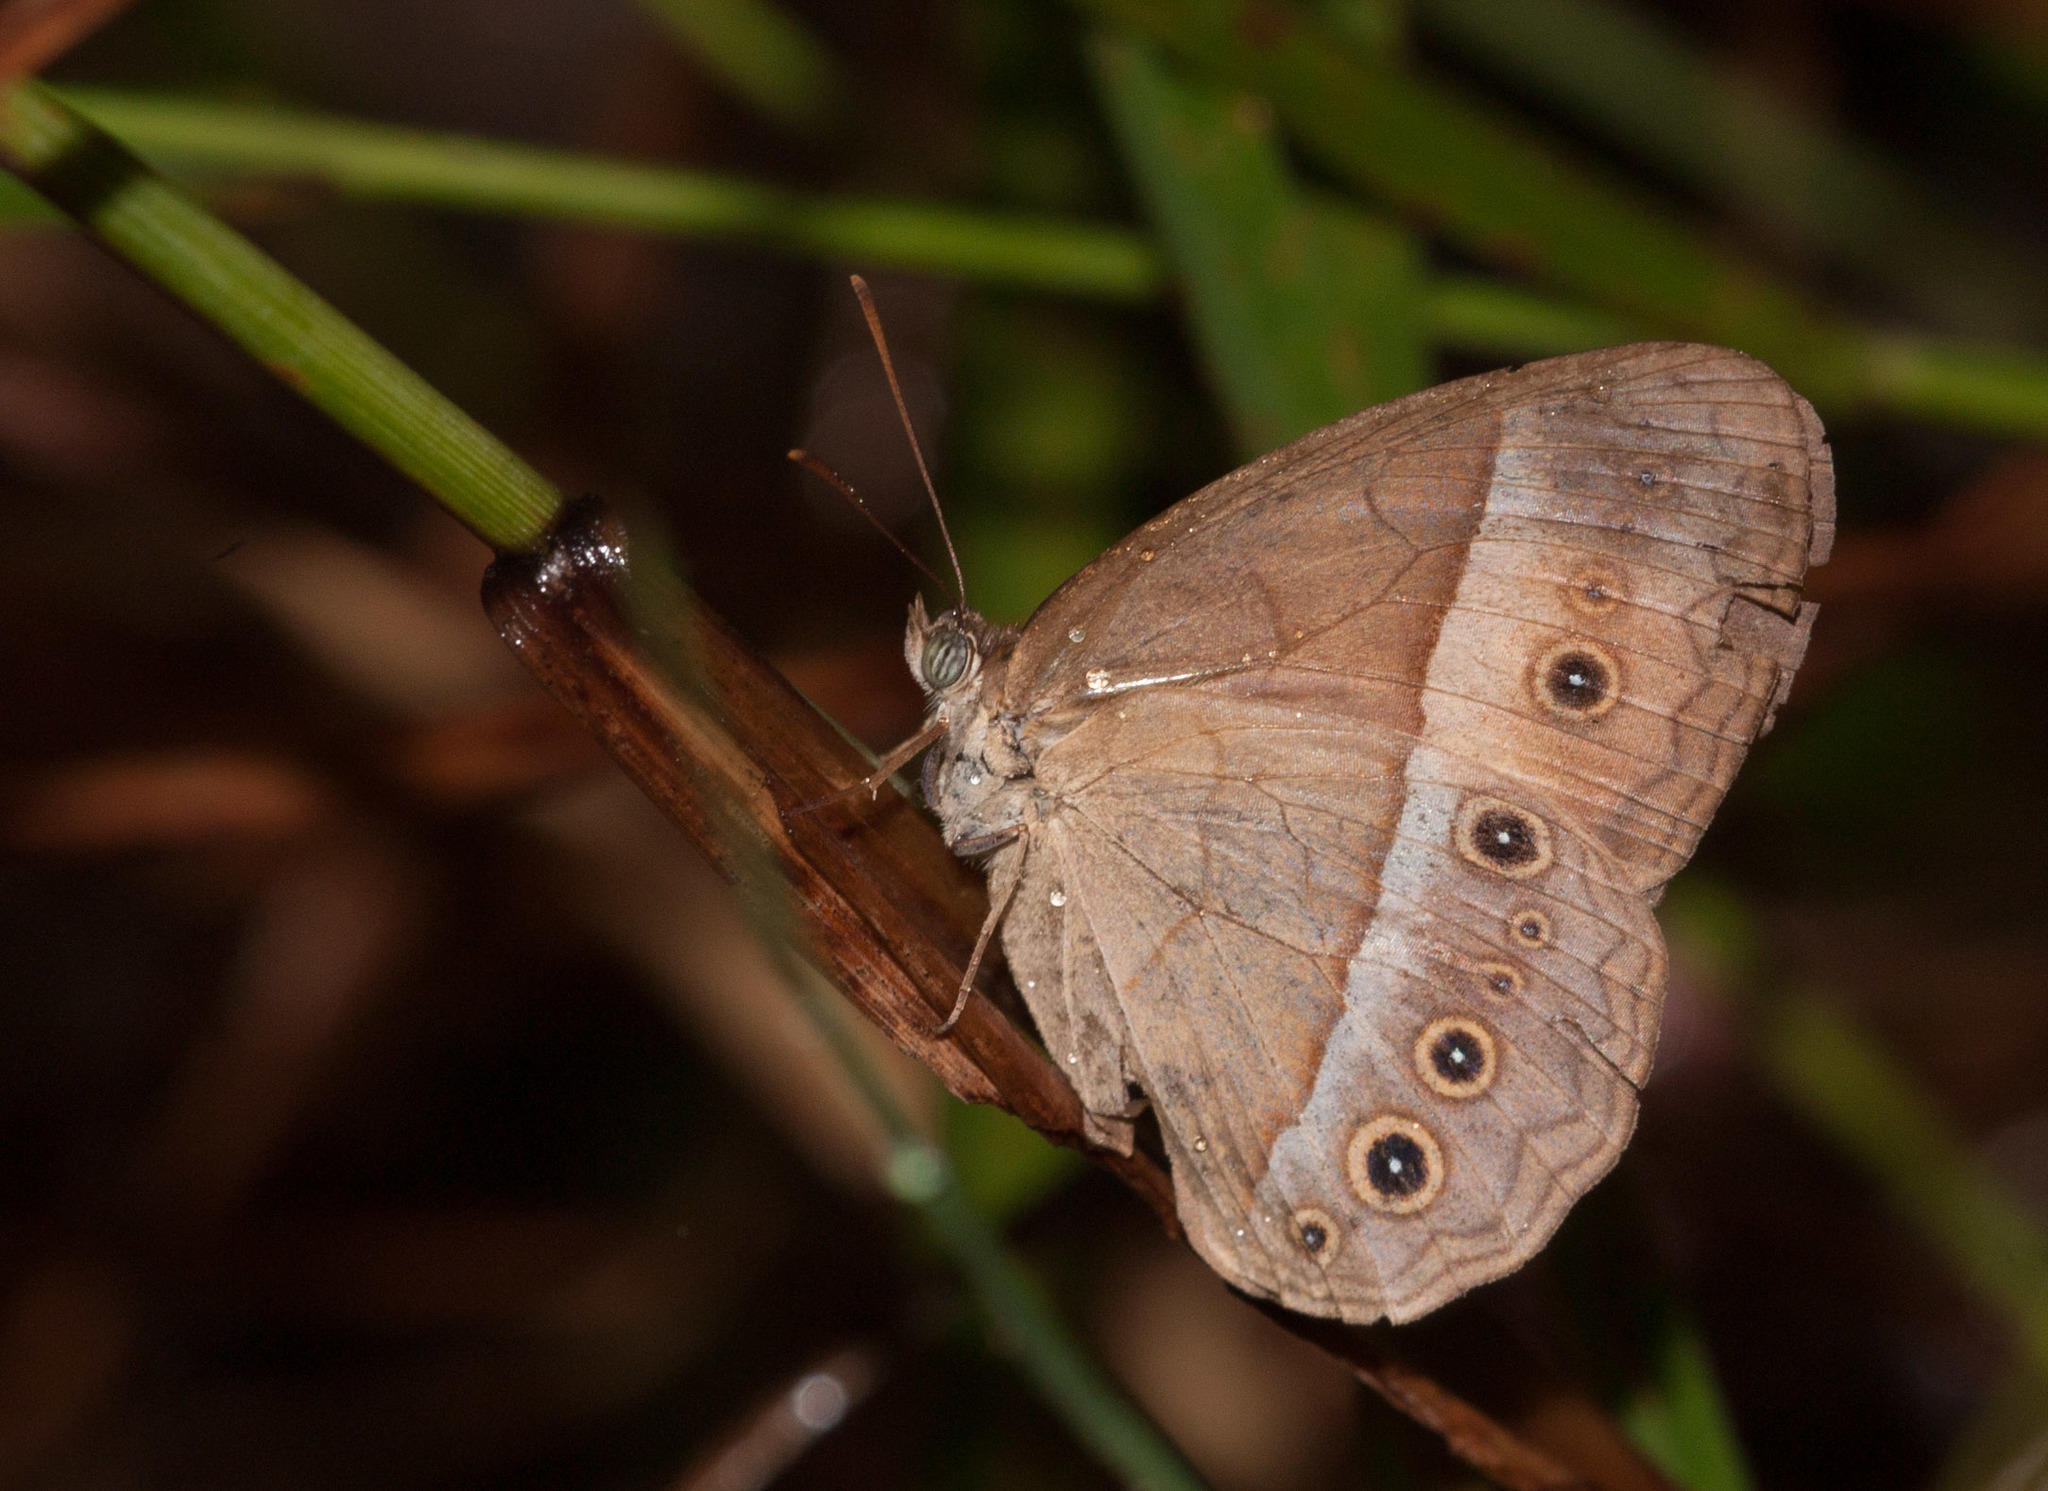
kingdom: Animalia
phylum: Arthropoda
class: Insecta
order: Lepidoptera
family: Nymphalidae
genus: Mycalesis
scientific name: Mycalesis terminus
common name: Orange bushbrown
